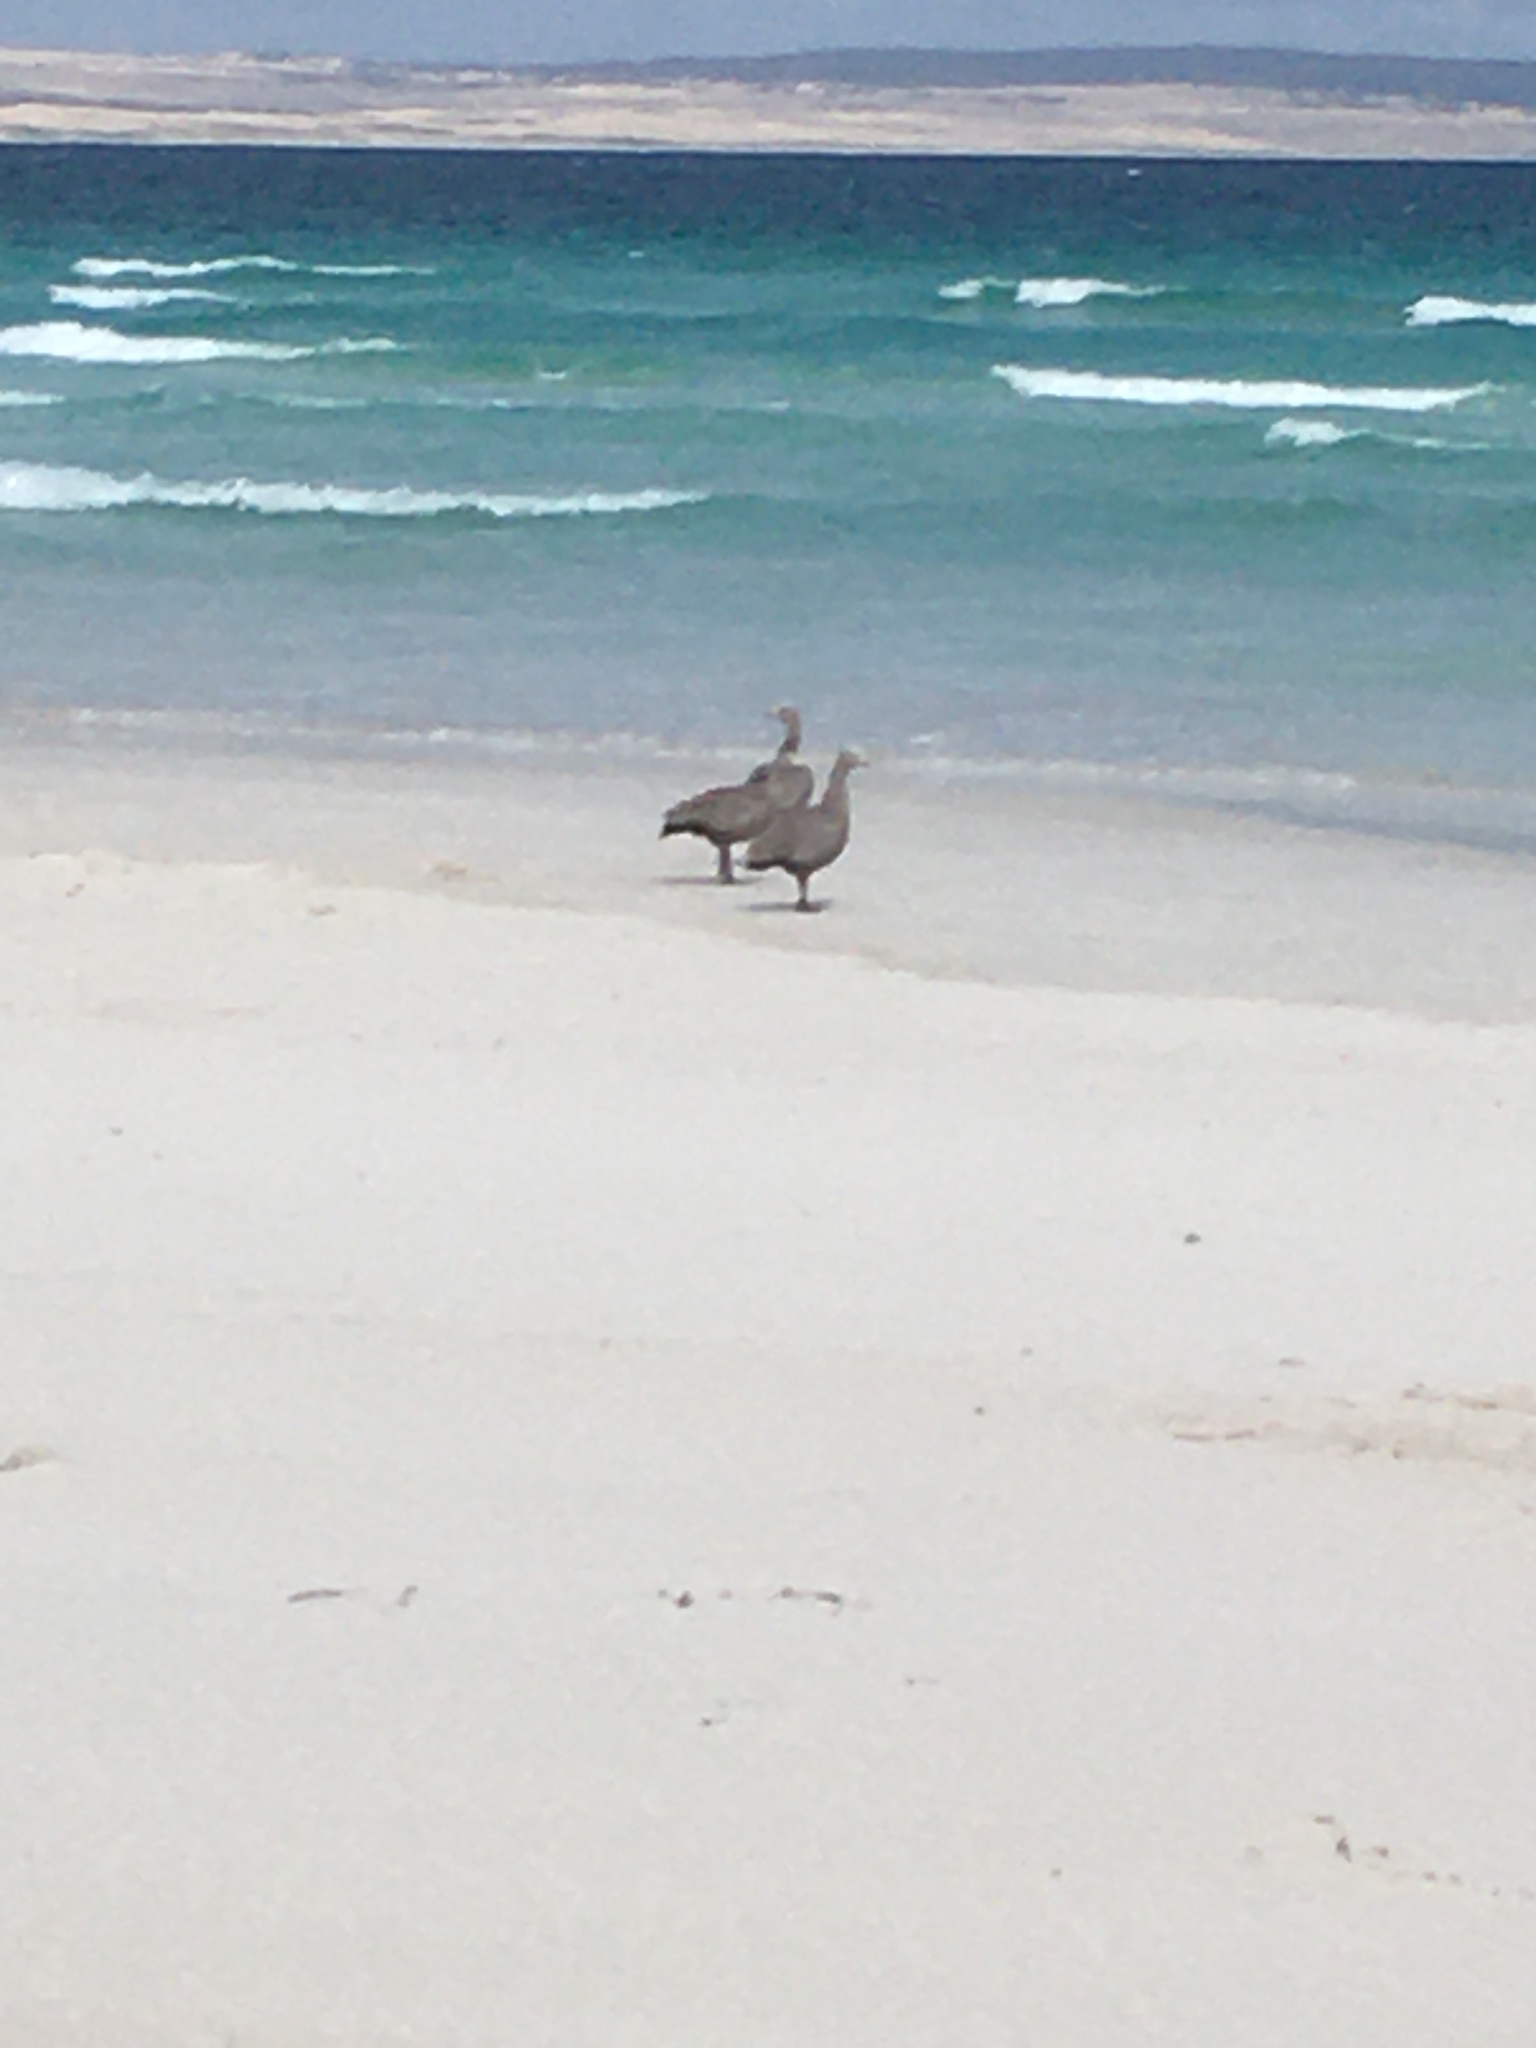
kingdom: Animalia
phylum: Chordata
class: Aves
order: Anseriformes
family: Anatidae
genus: Cereopsis
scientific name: Cereopsis novaehollandiae
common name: Cape barren goose
